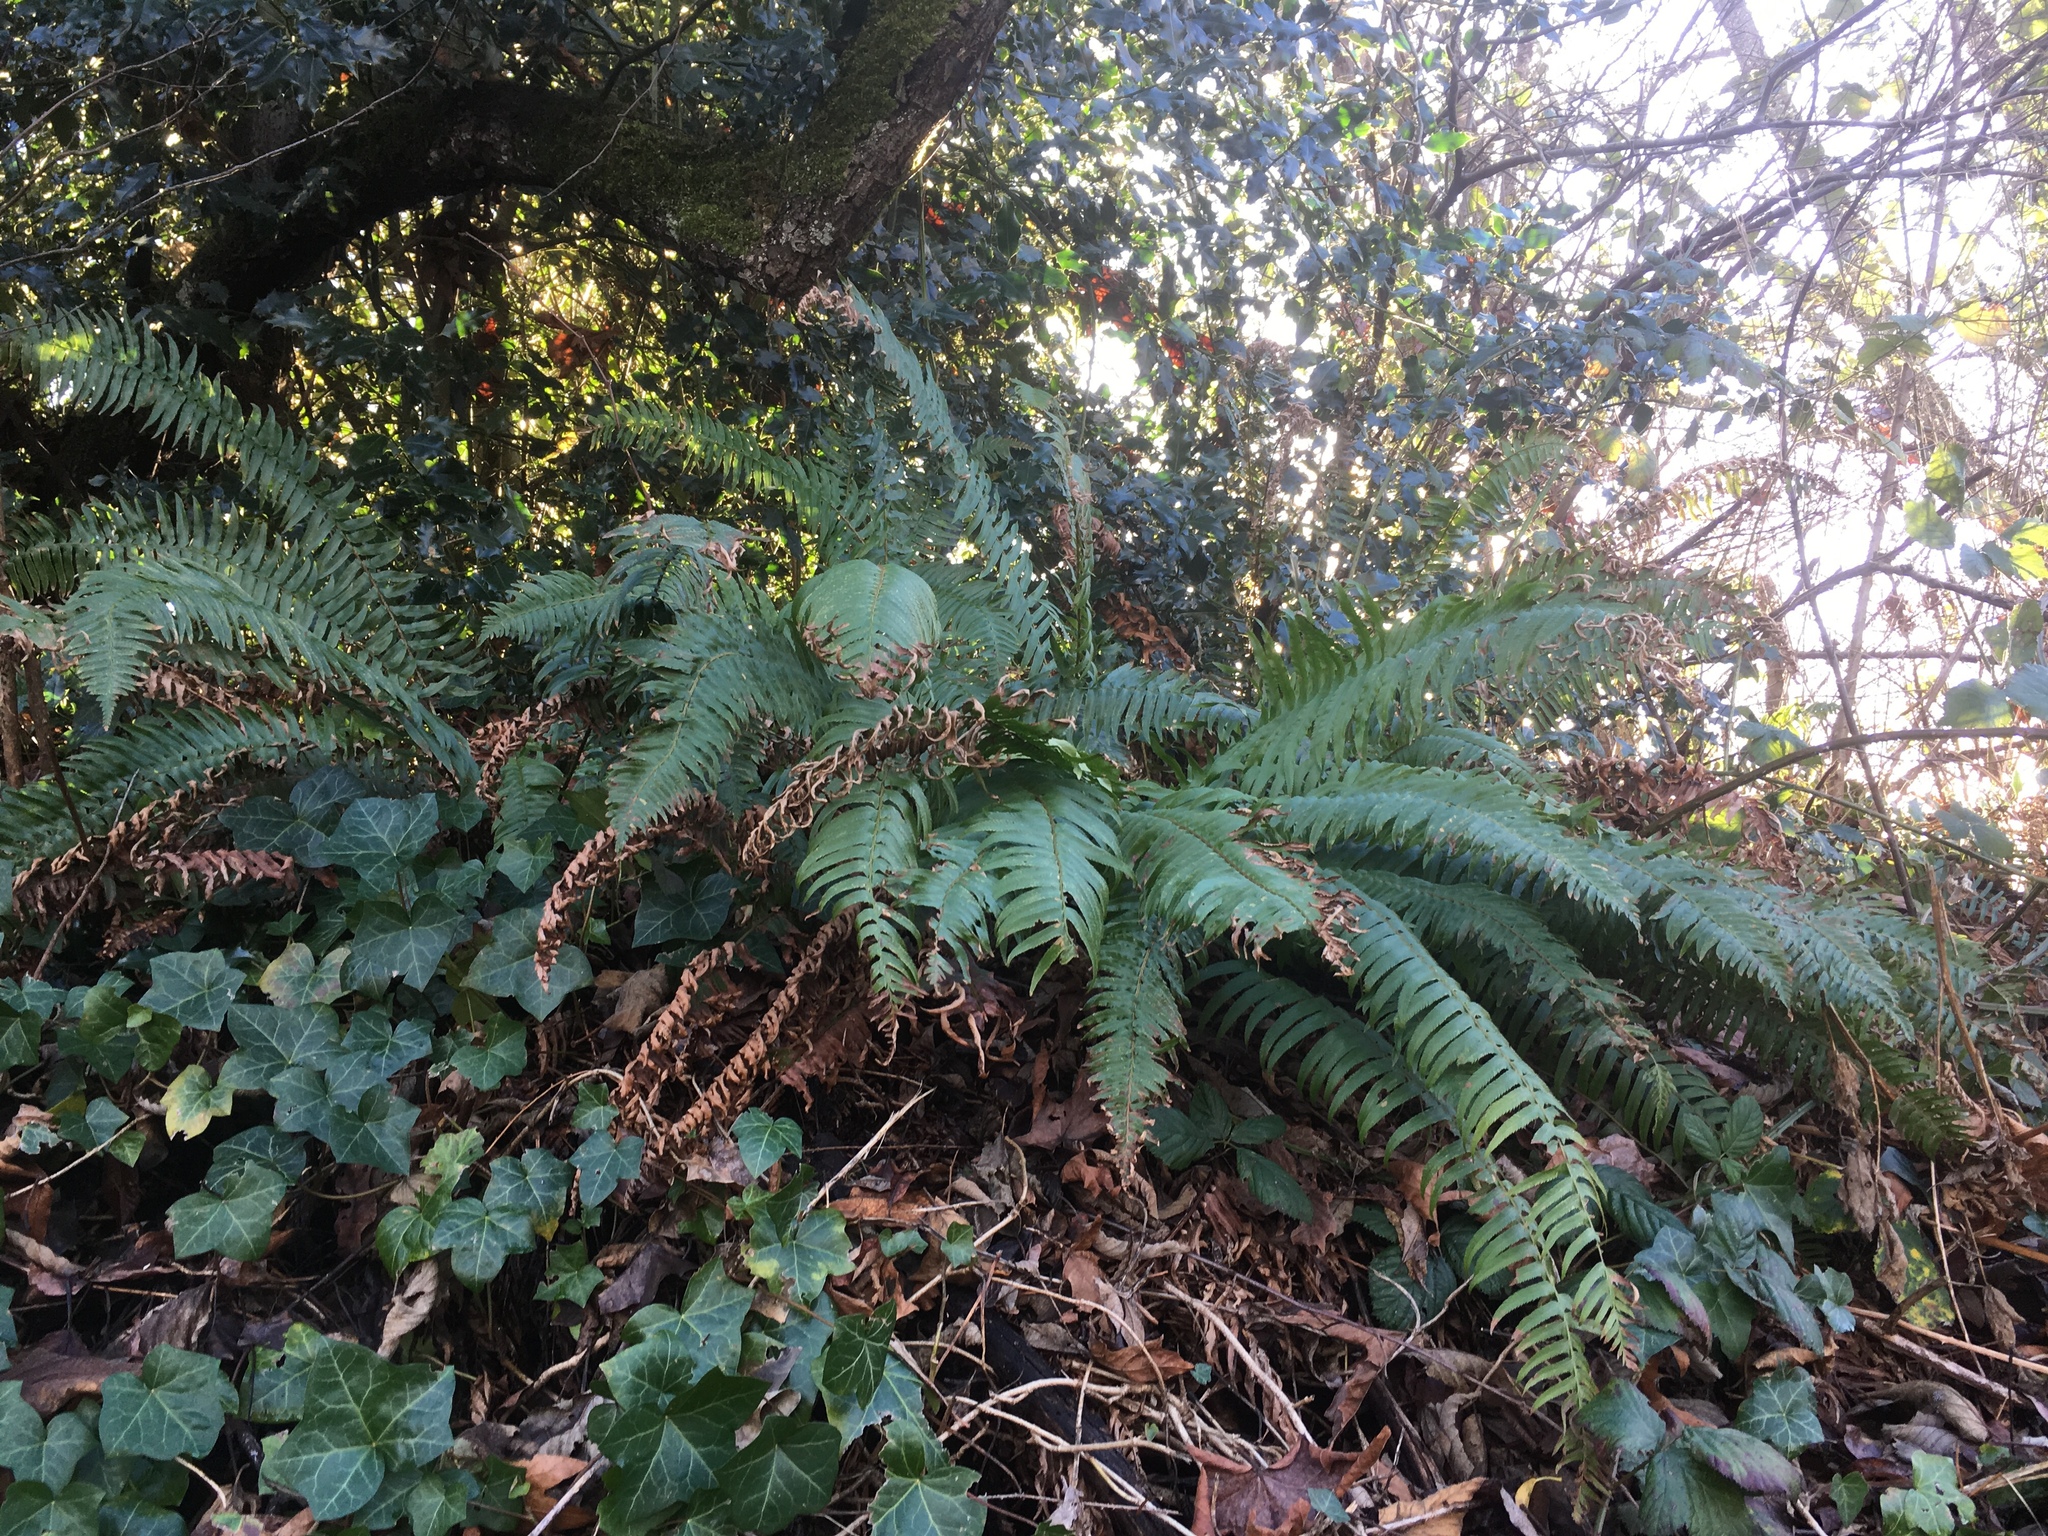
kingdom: Plantae
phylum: Tracheophyta
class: Polypodiopsida
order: Polypodiales
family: Dryopteridaceae
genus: Polystichum
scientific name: Polystichum munitum
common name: Western sword-fern
